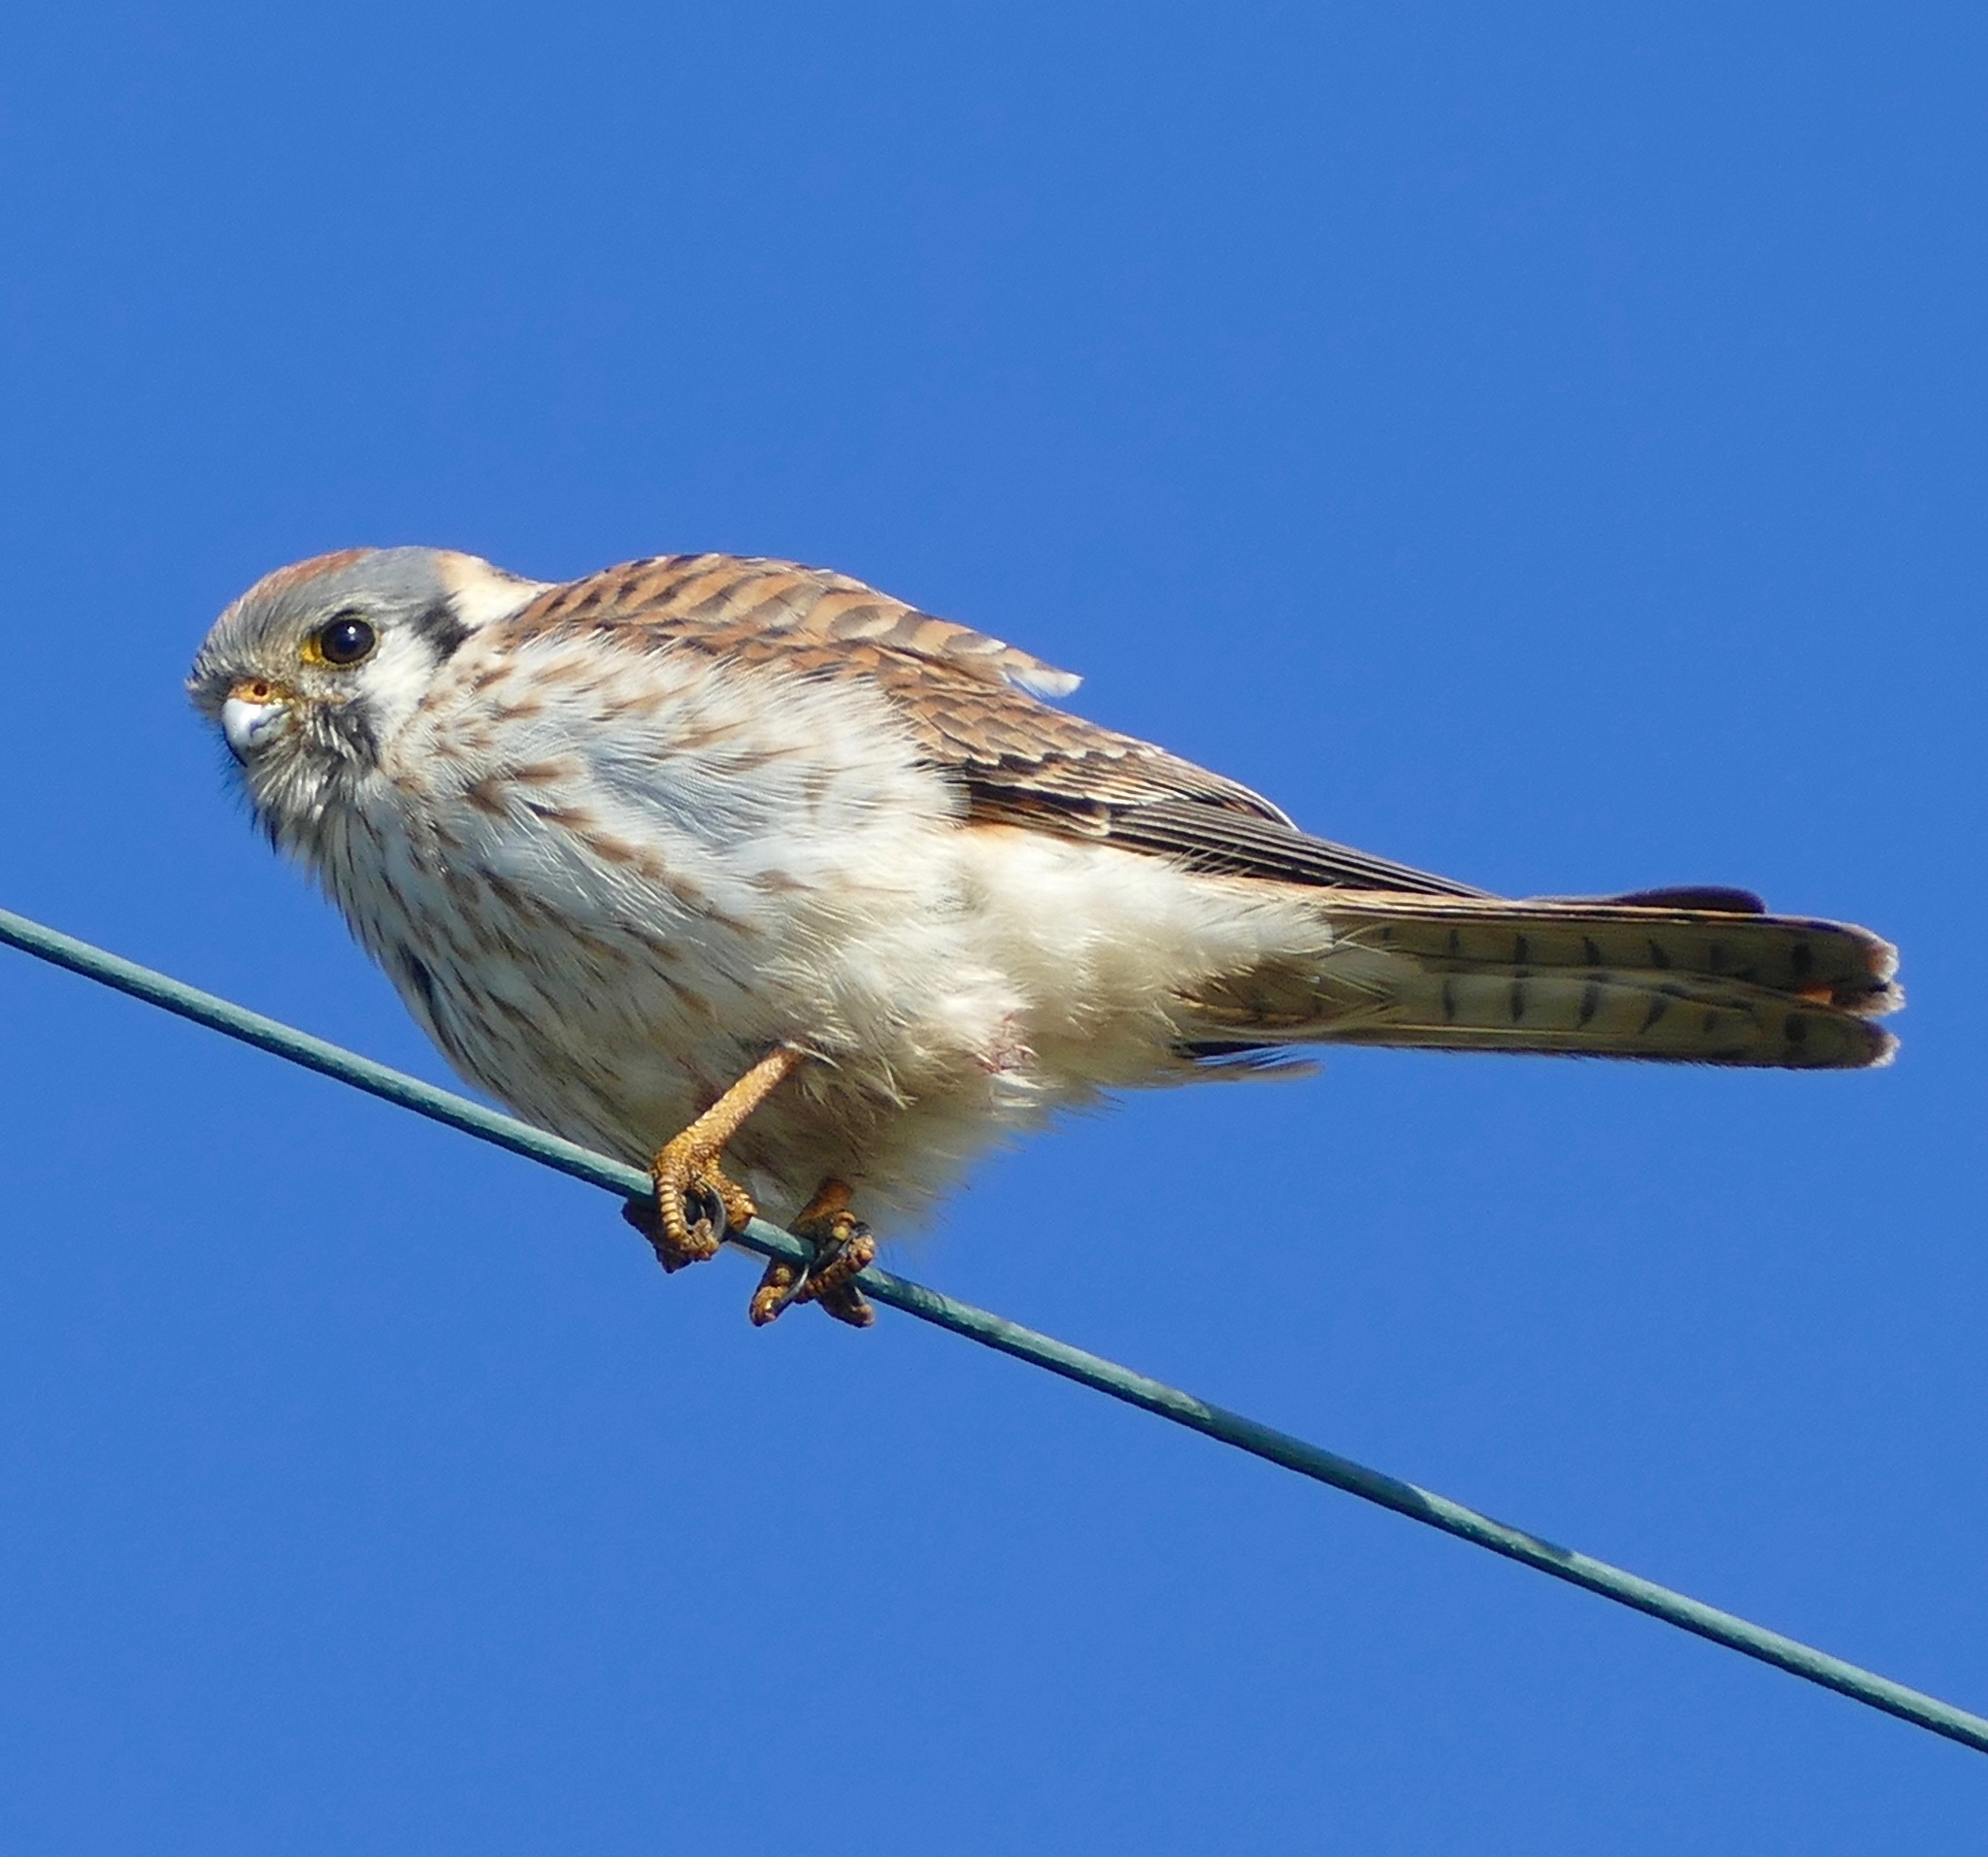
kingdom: Animalia
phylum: Chordata
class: Aves
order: Falconiformes
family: Falconidae
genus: Falco
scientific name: Falco sparverius
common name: American kestrel
